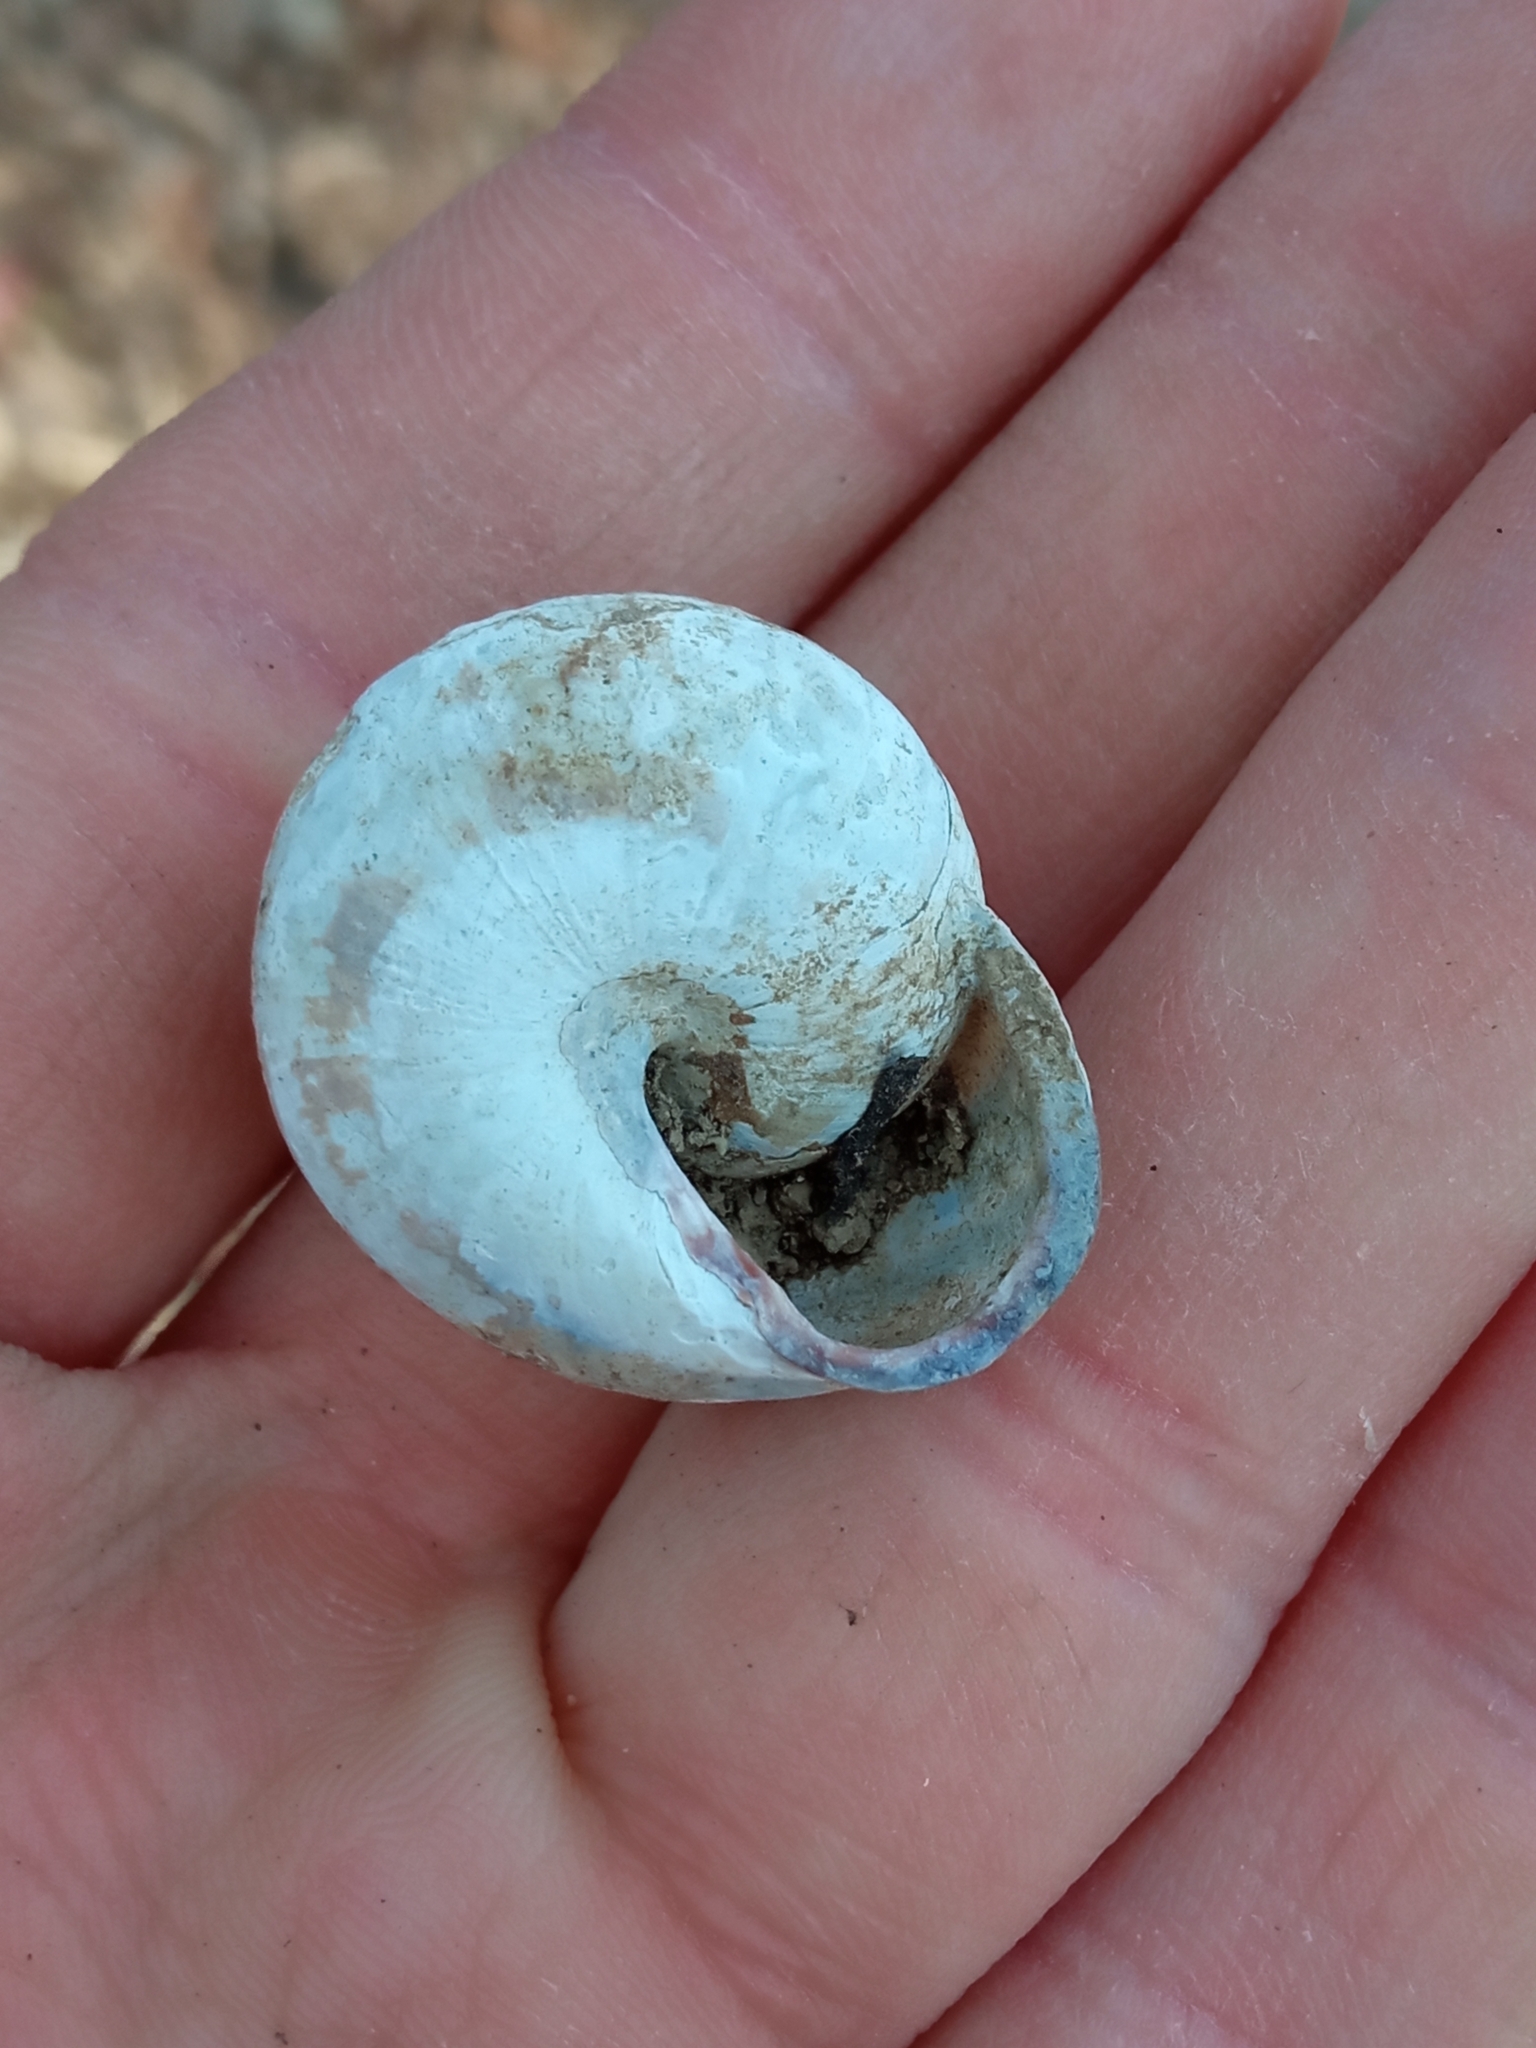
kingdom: Animalia
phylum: Mollusca
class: Gastropoda
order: Stylommatophora
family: Helicidae
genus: Cepaea
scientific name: Cepaea nemoralis
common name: Grovesnail
